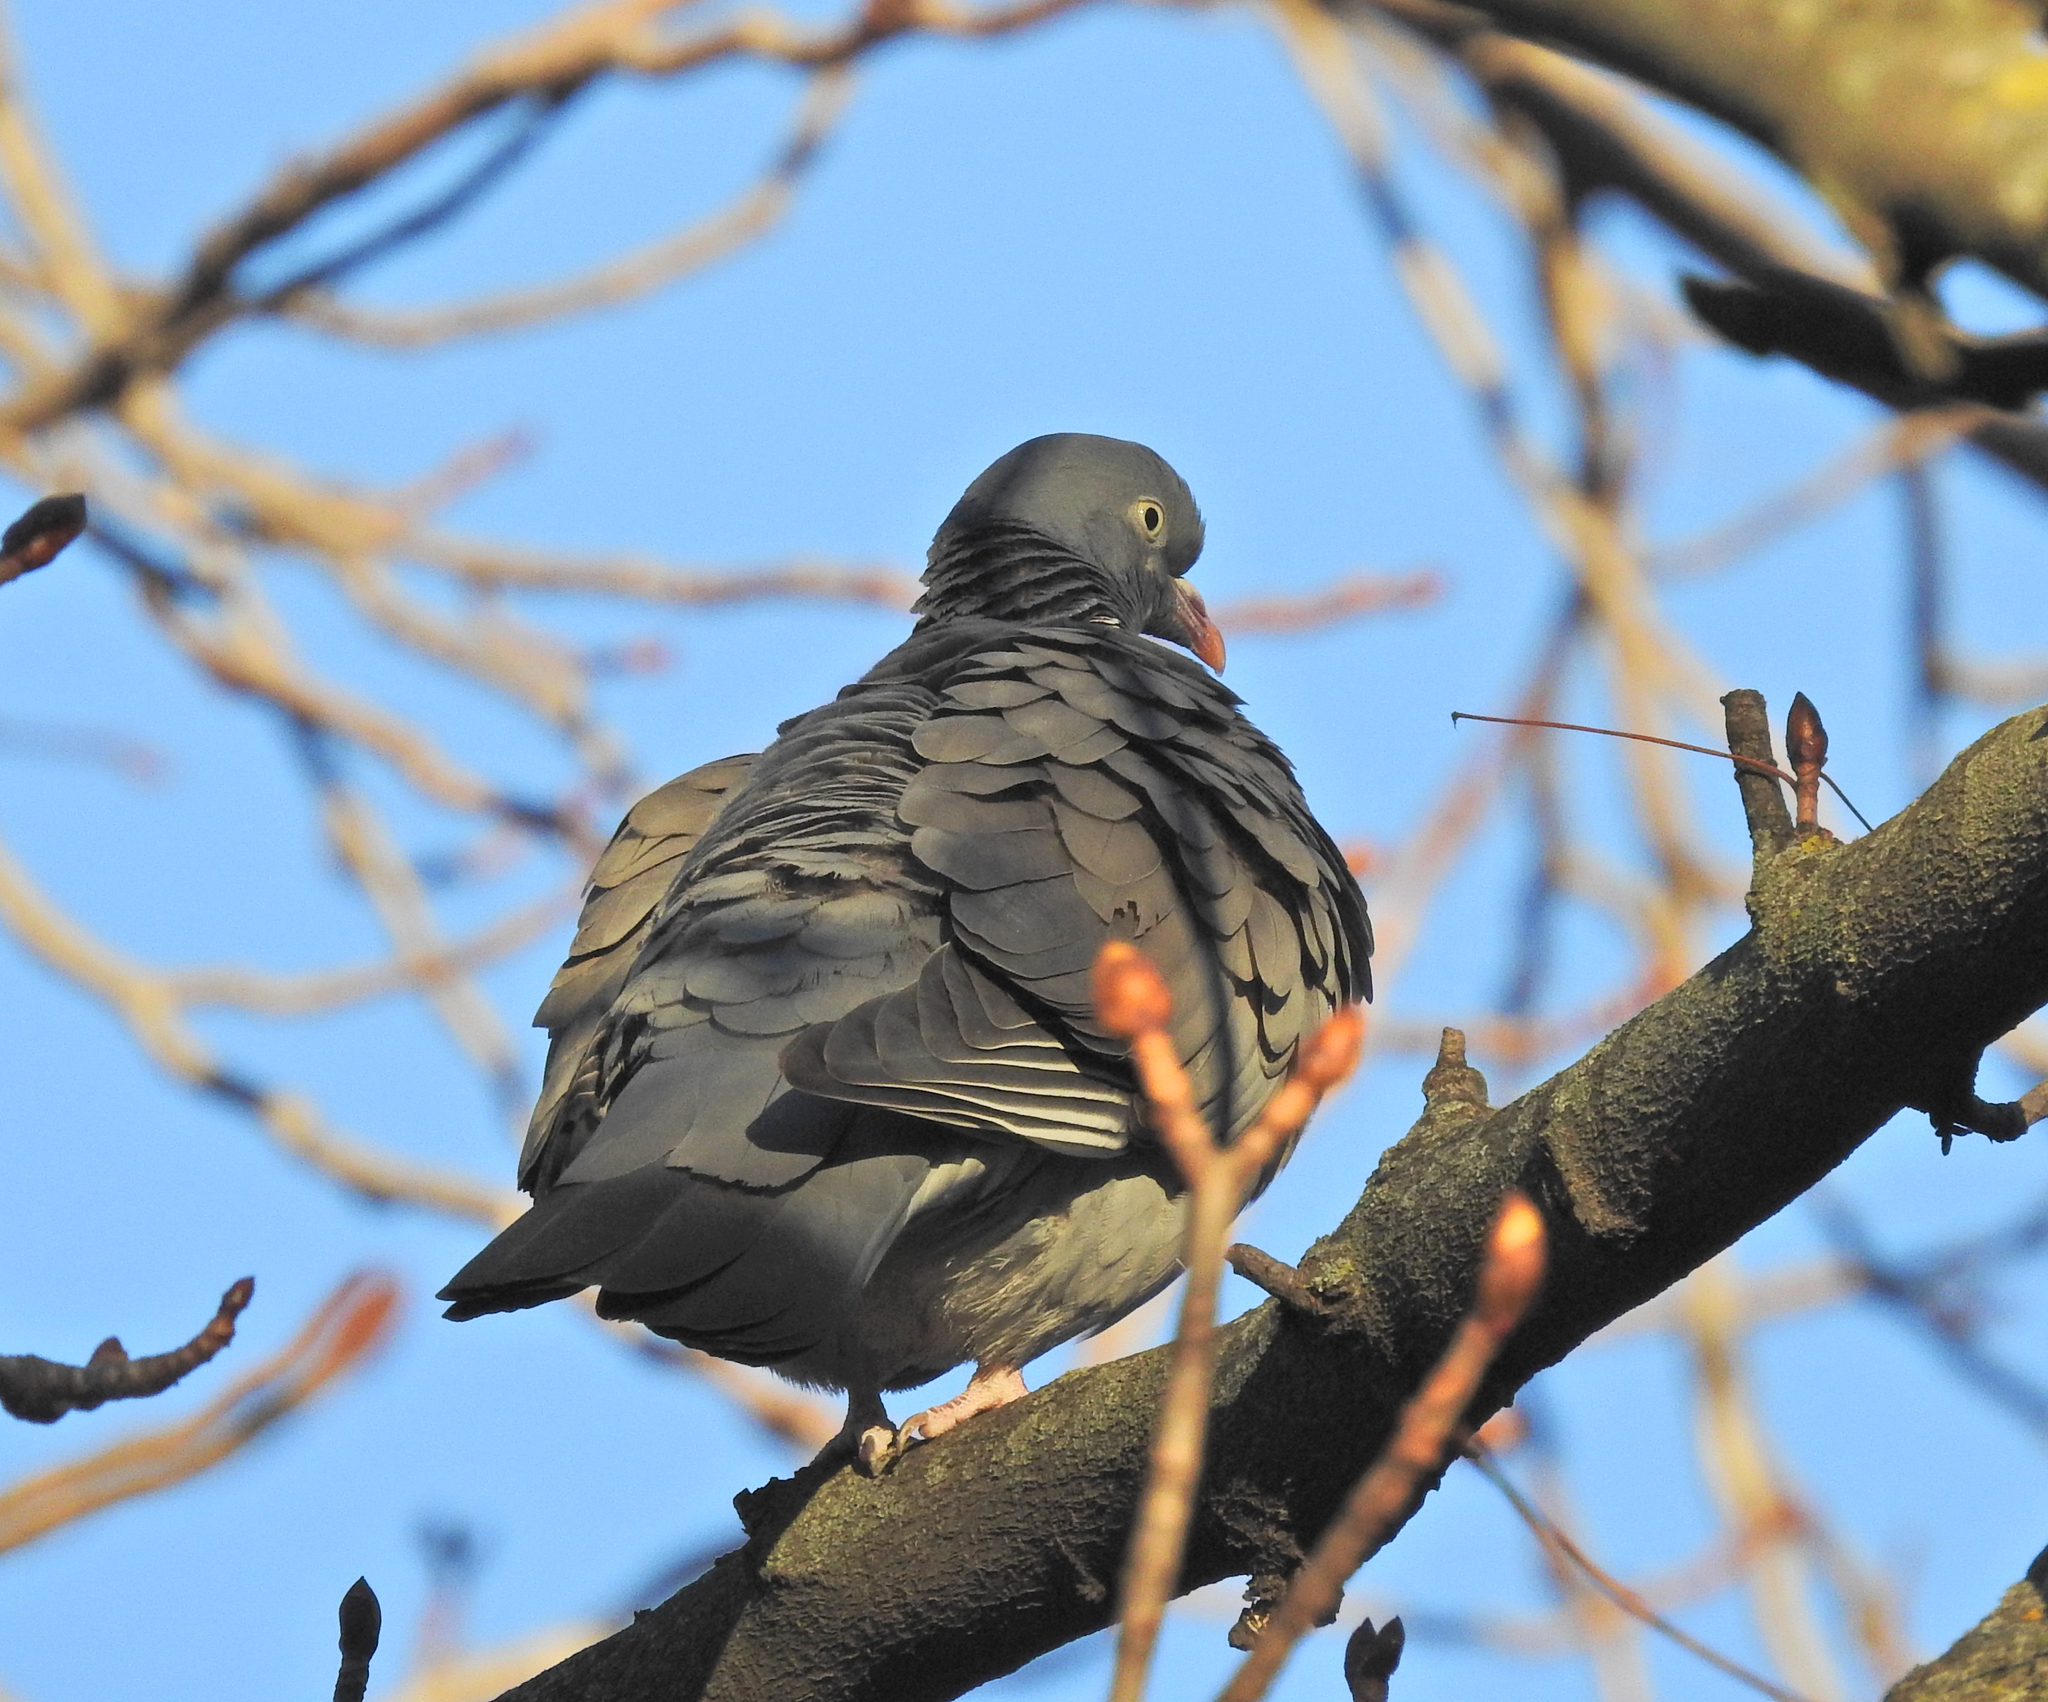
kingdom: Animalia
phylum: Chordata
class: Aves
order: Columbiformes
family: Columbidae
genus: Columba
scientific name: Columba palumbus
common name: Common wood pigeon
